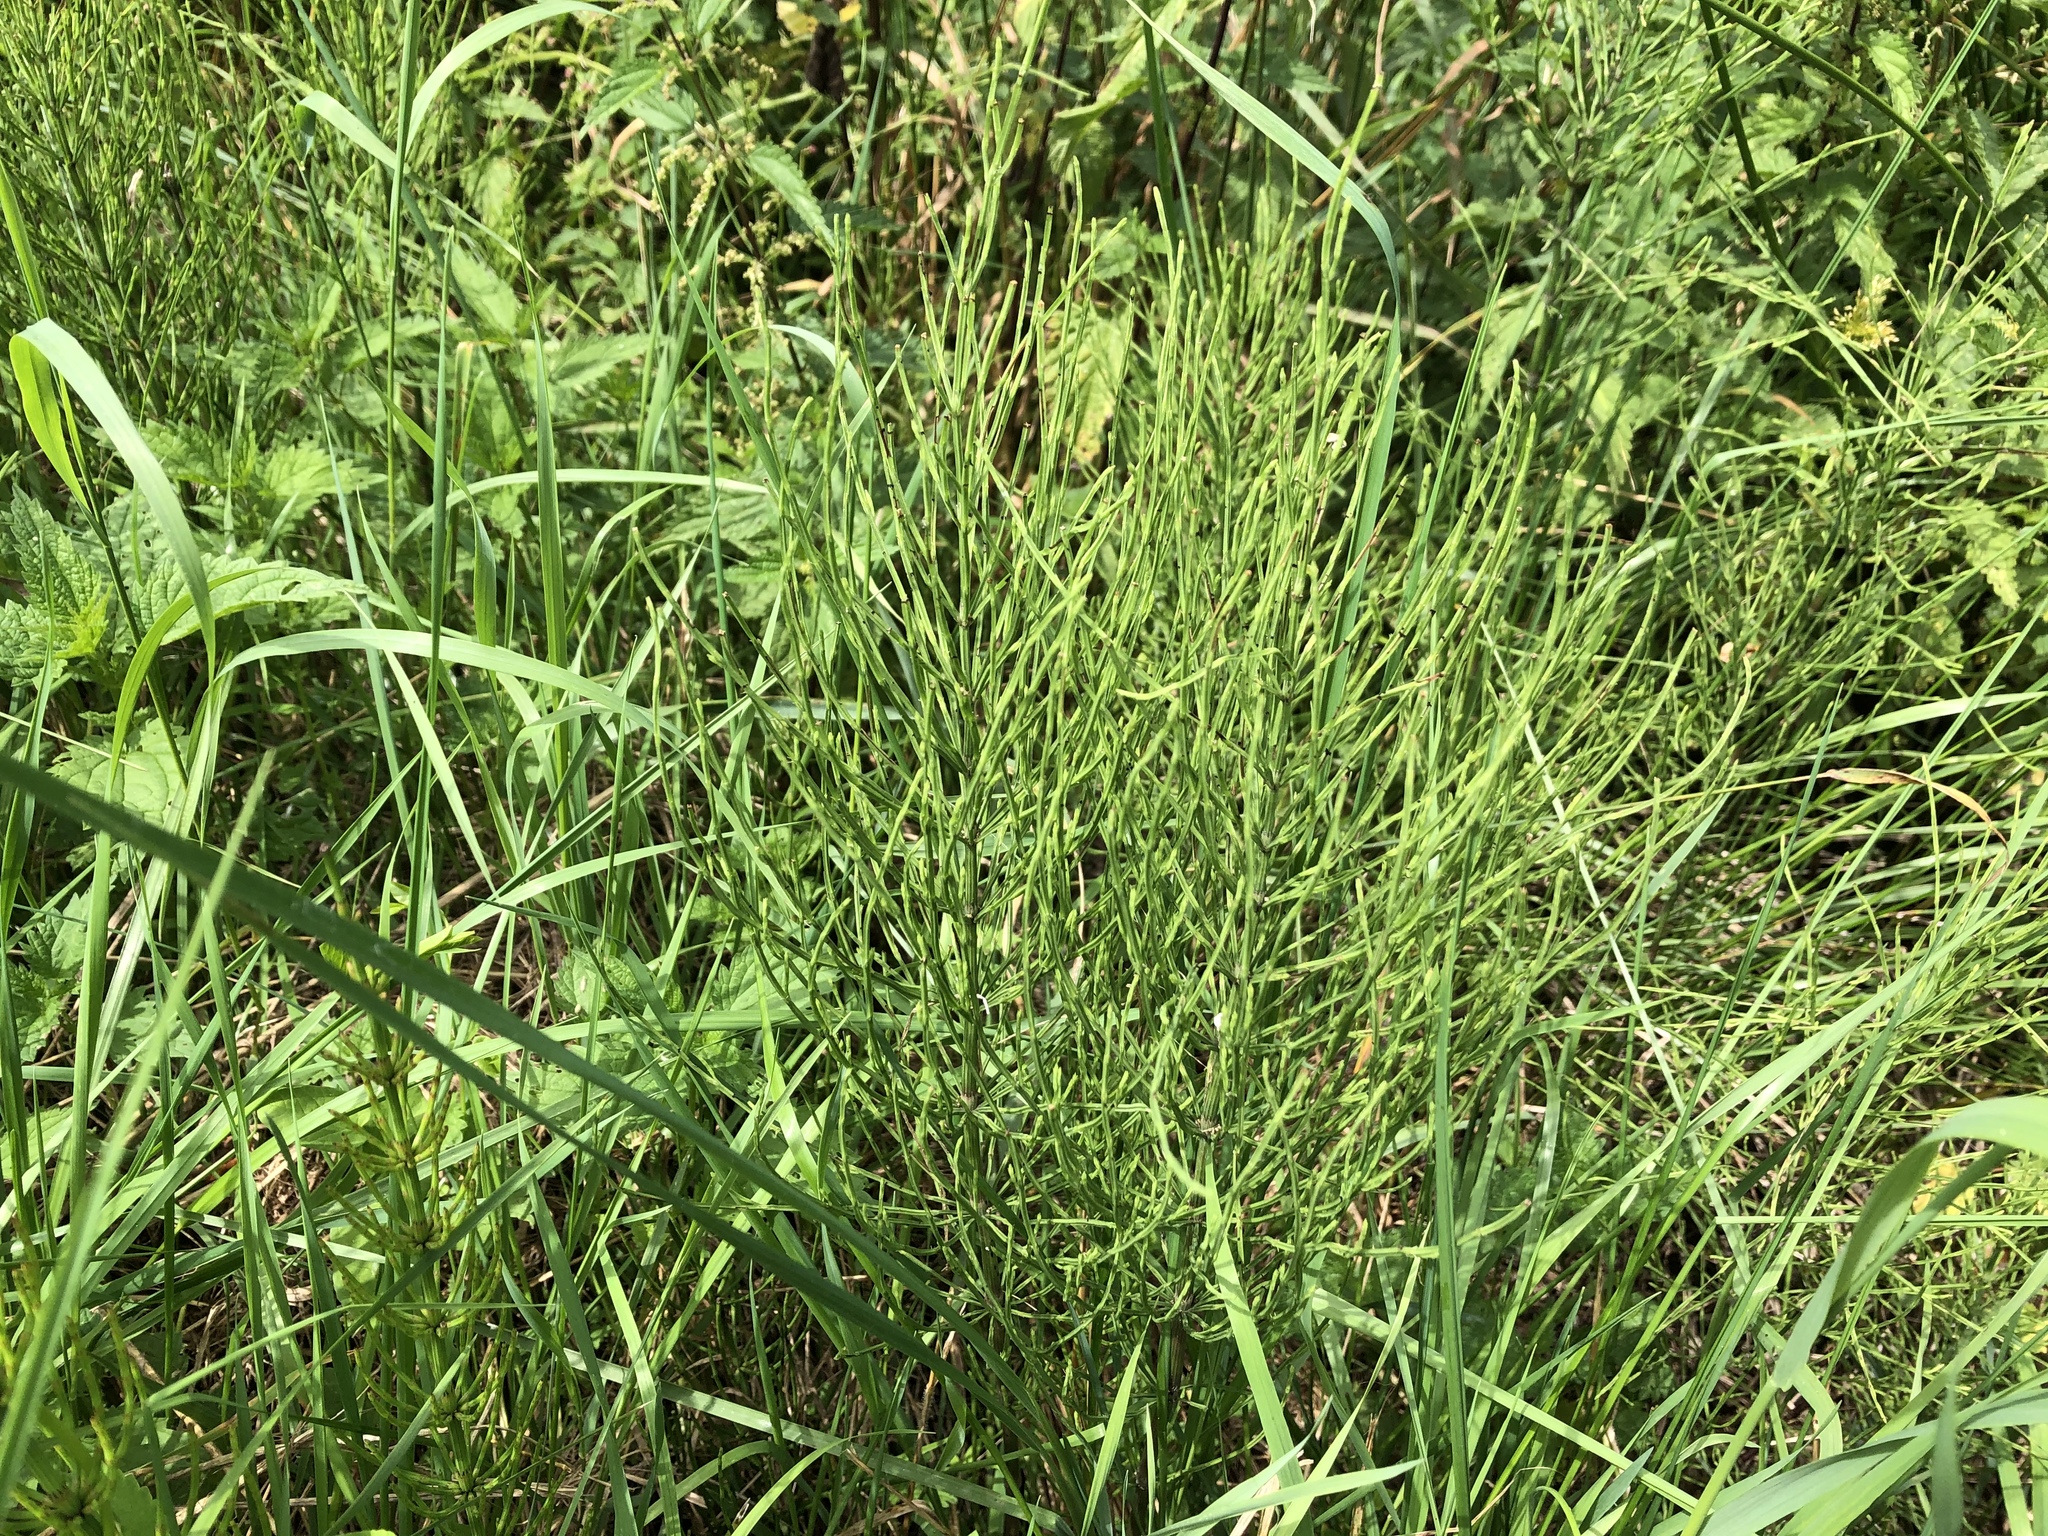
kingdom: Plantae
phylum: Tracheophyta
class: Polypodiopsida
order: Equisetales
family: Equisetaceae
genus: Equisetum
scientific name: Equisetum arvense
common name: Field horsetail
